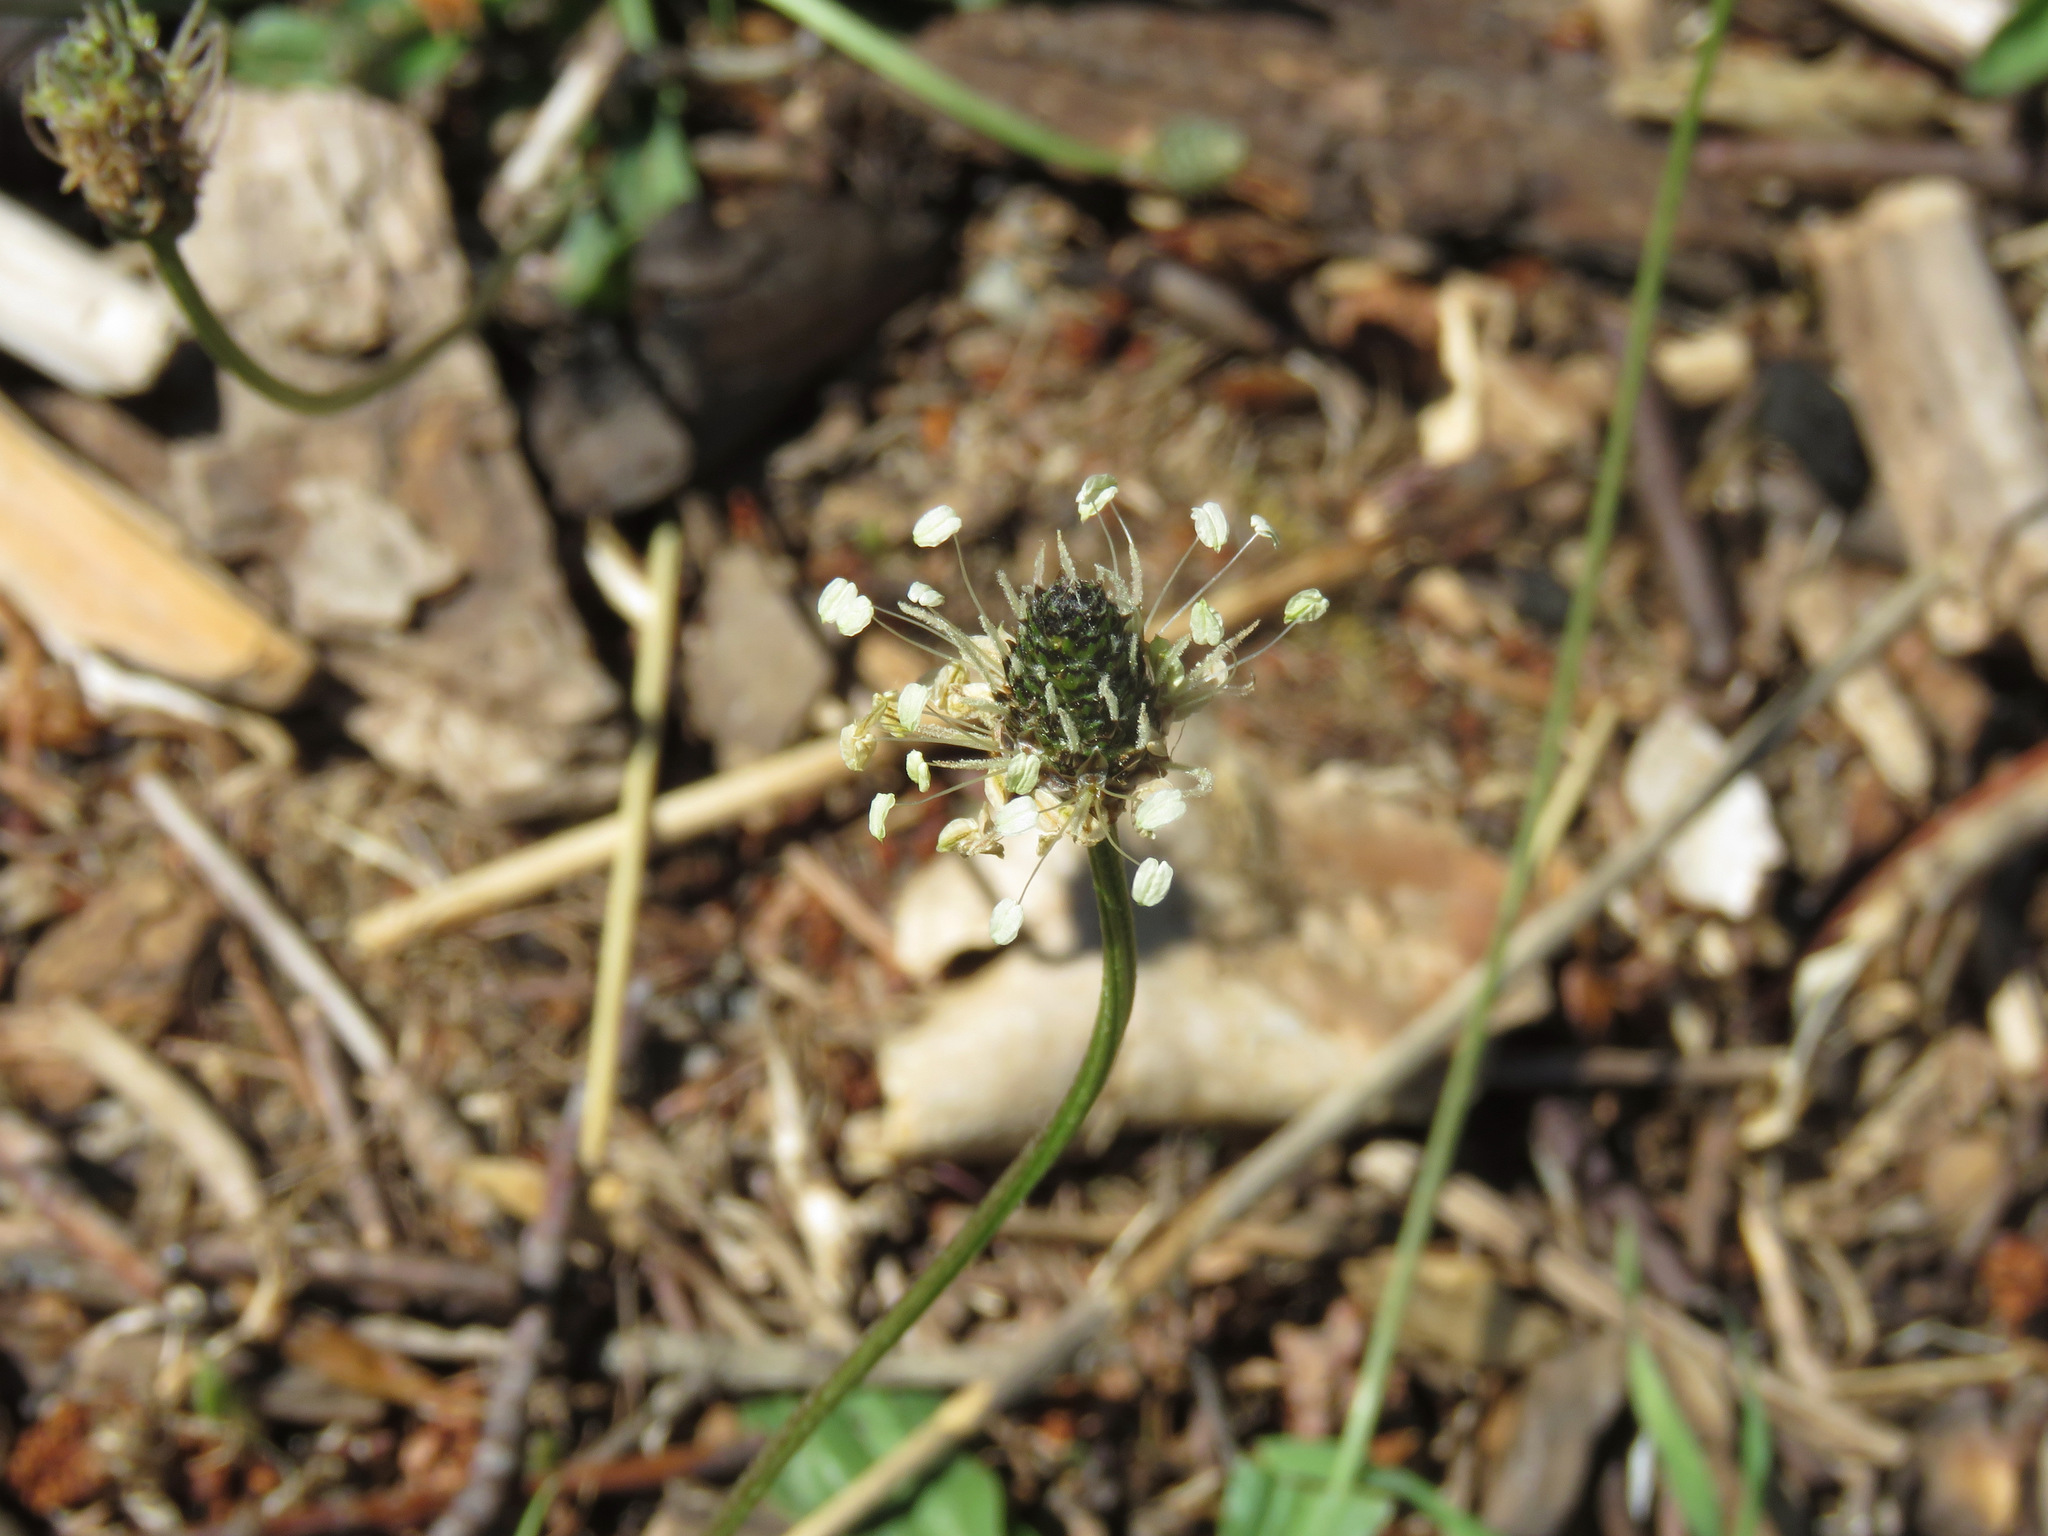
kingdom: Plantae
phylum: Tracheophyta
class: Magnoliopsida
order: Lamiales
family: Plantaginaceae
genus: Plantago
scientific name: Plantago lanceolata
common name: Ribwort plantain
